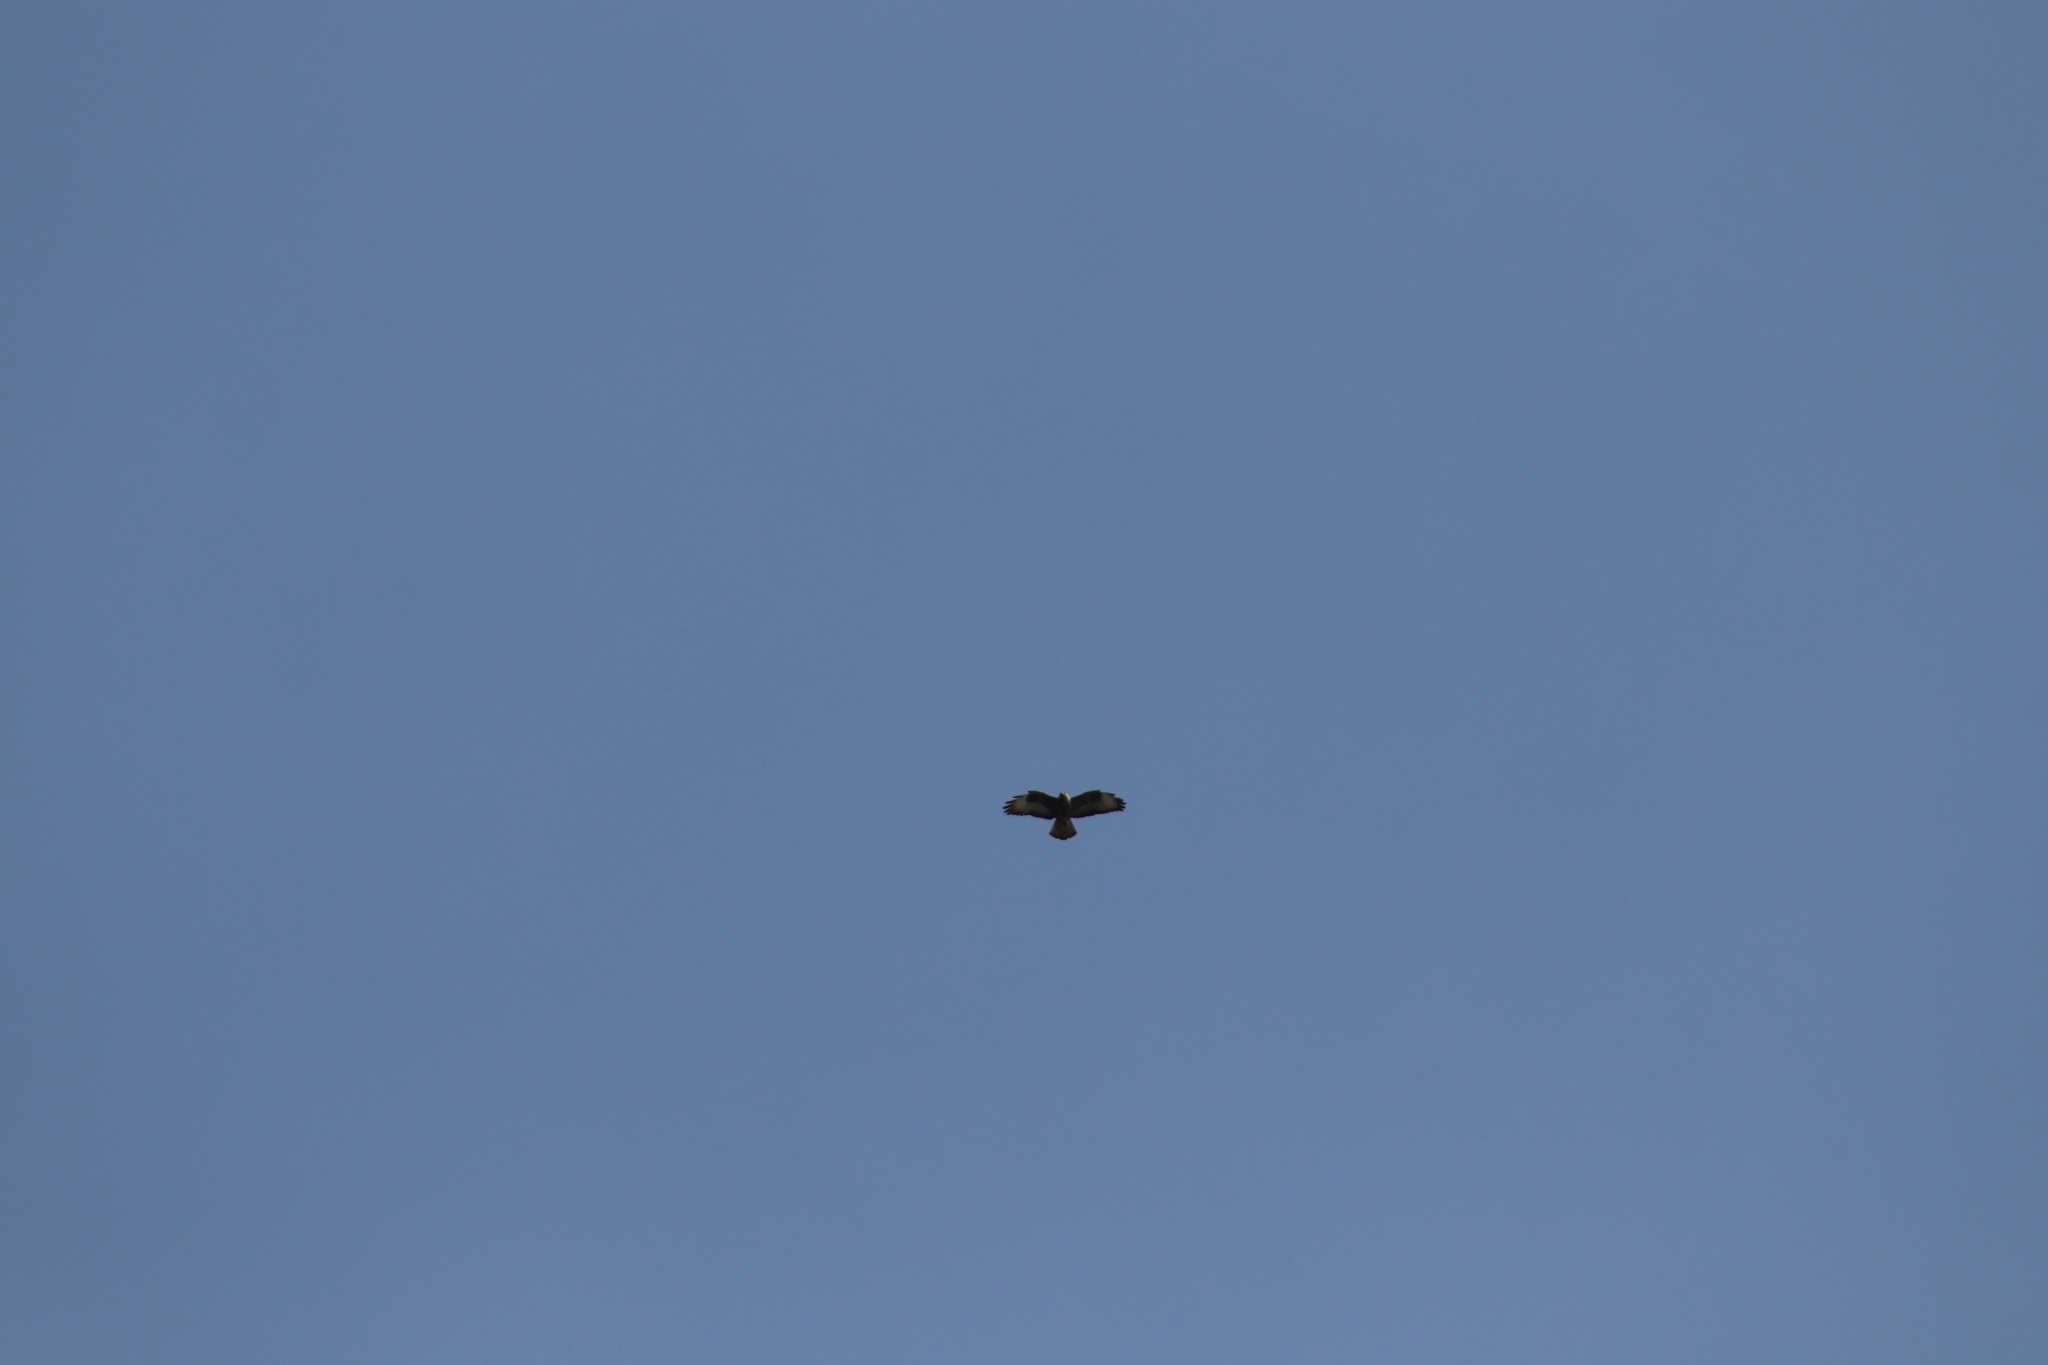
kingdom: Animalia
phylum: Chordata
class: Aves
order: Accipitriformes
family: Accipitridae
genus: Buteo
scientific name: Buteo buteo
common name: Common buzzard
